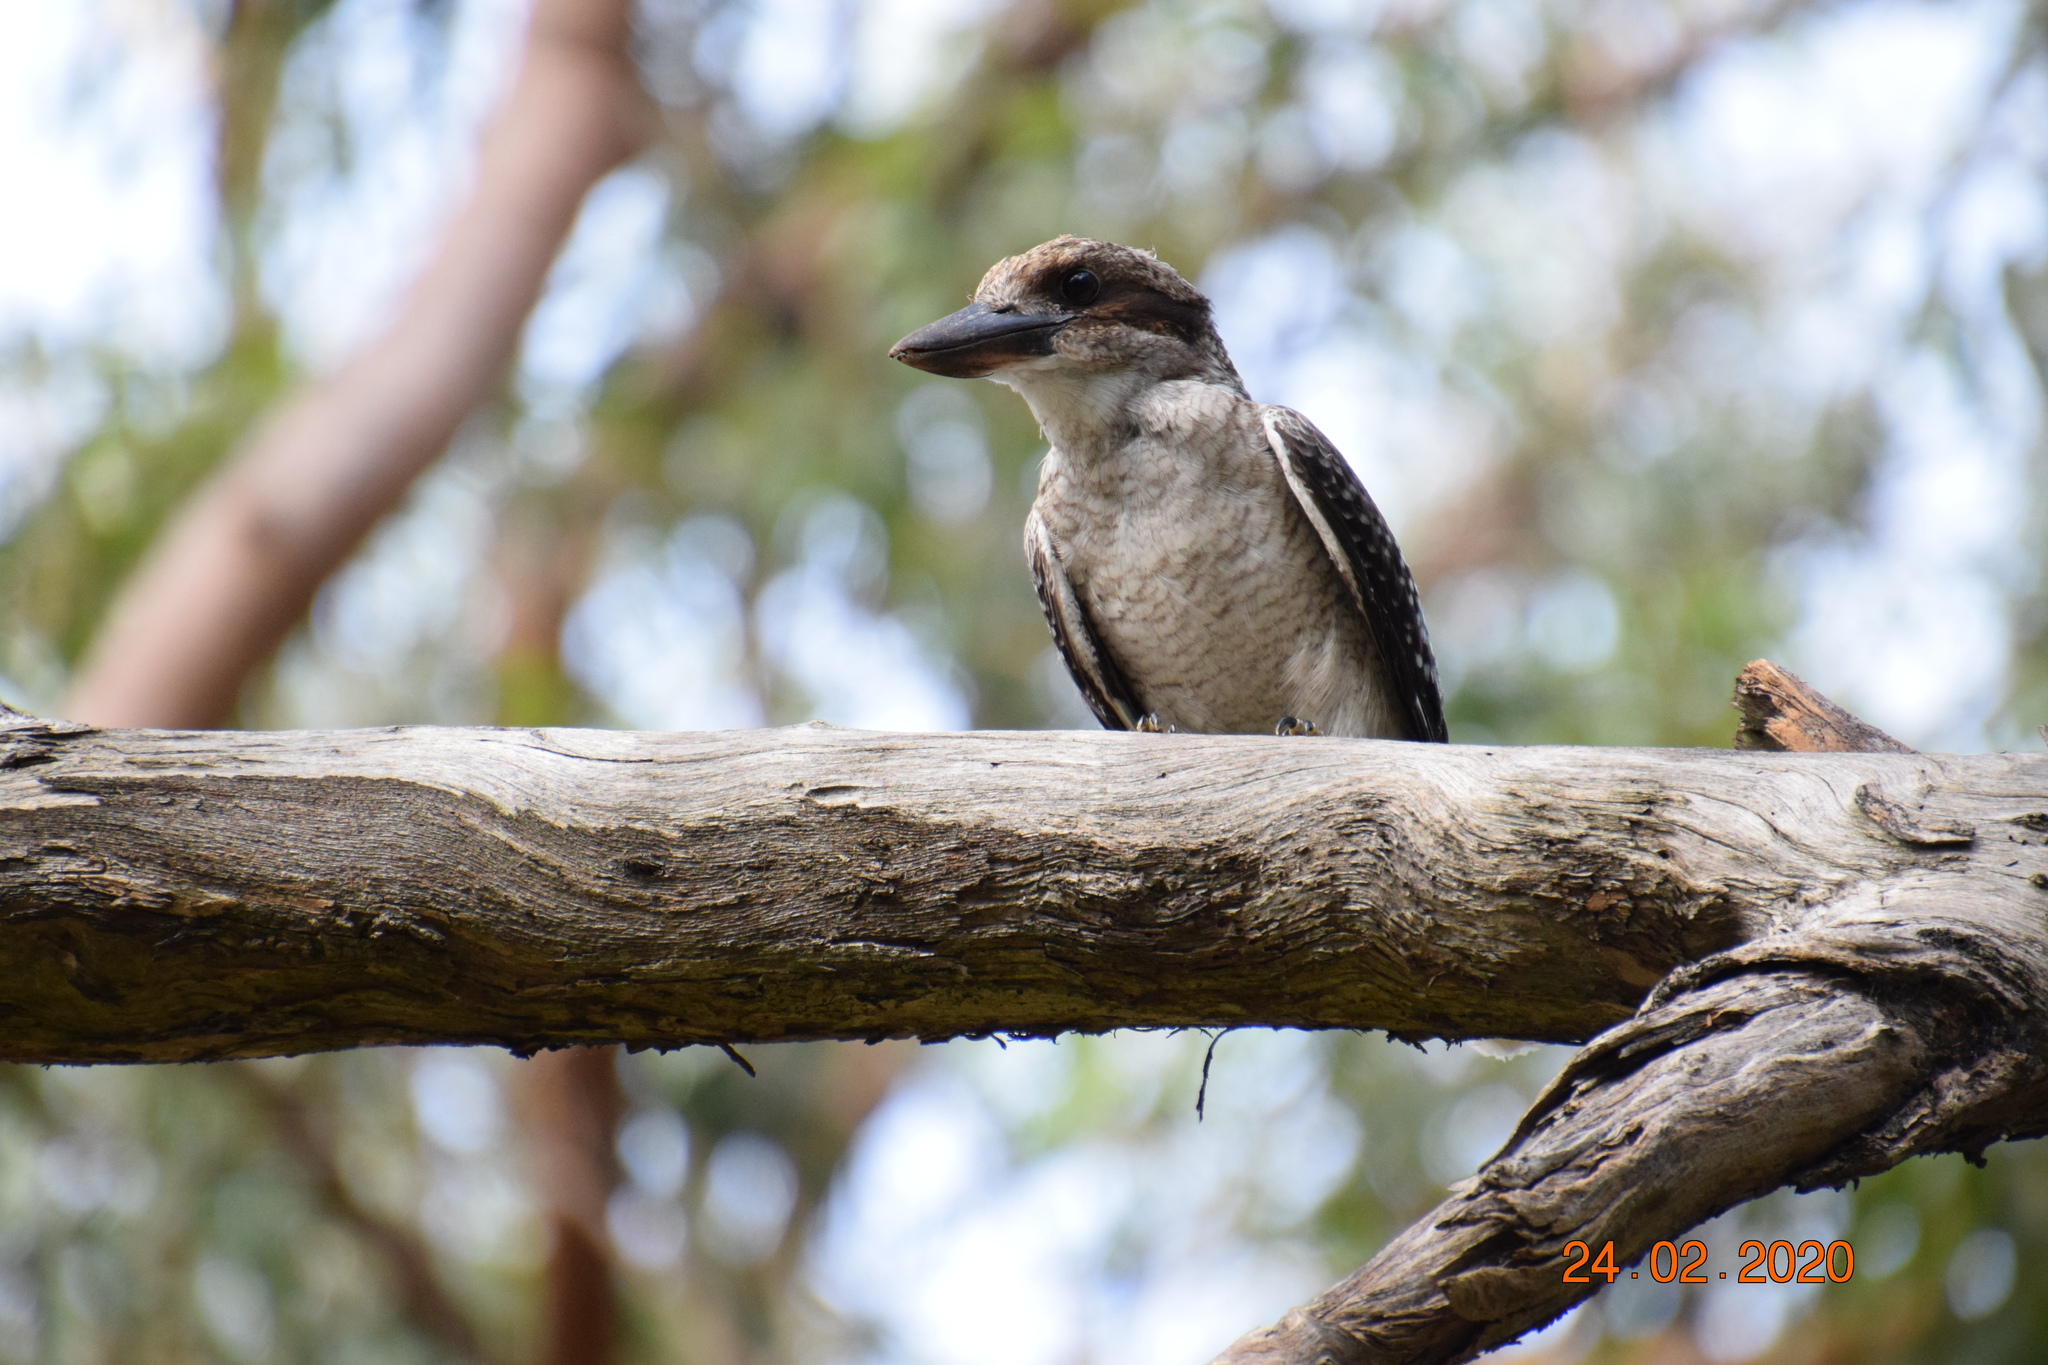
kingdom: Animalia
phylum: Chordata
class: Aves
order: Coraciiformes
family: Alcedinidae
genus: Dacelo
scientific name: Dacelo novaeguineae
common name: Laughing kookaburra
